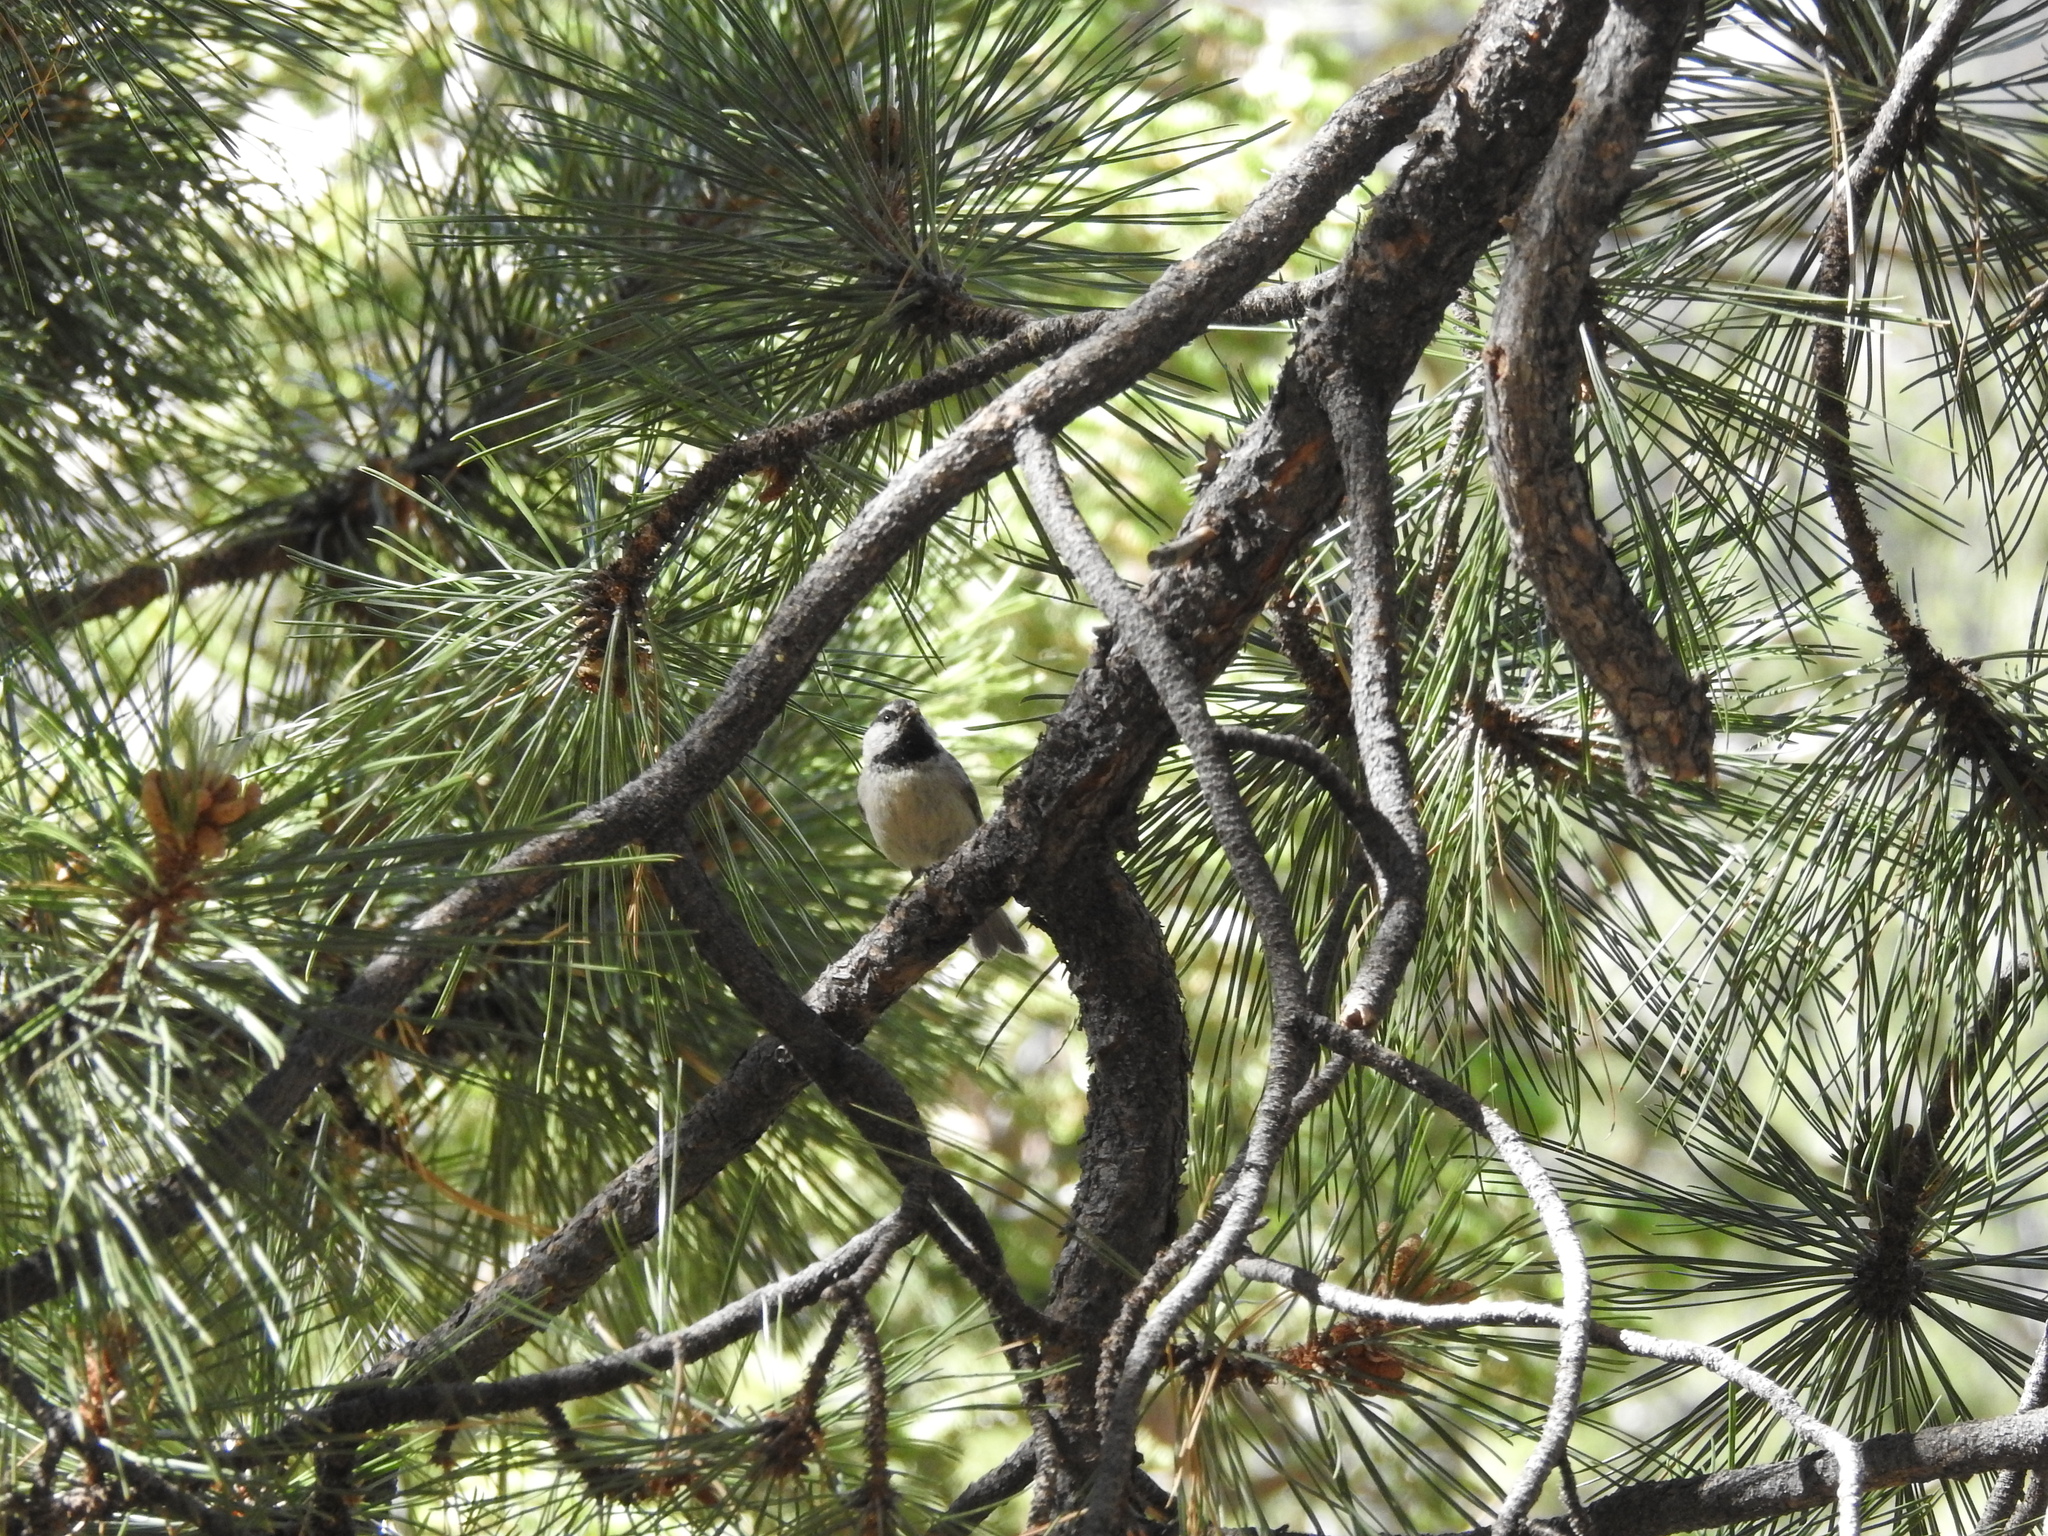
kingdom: Animalia
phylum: Chordata
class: Aves
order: Passeriformes
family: Paridae
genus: Poecile
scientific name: Poecile gambeli
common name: Mountain chickadee
